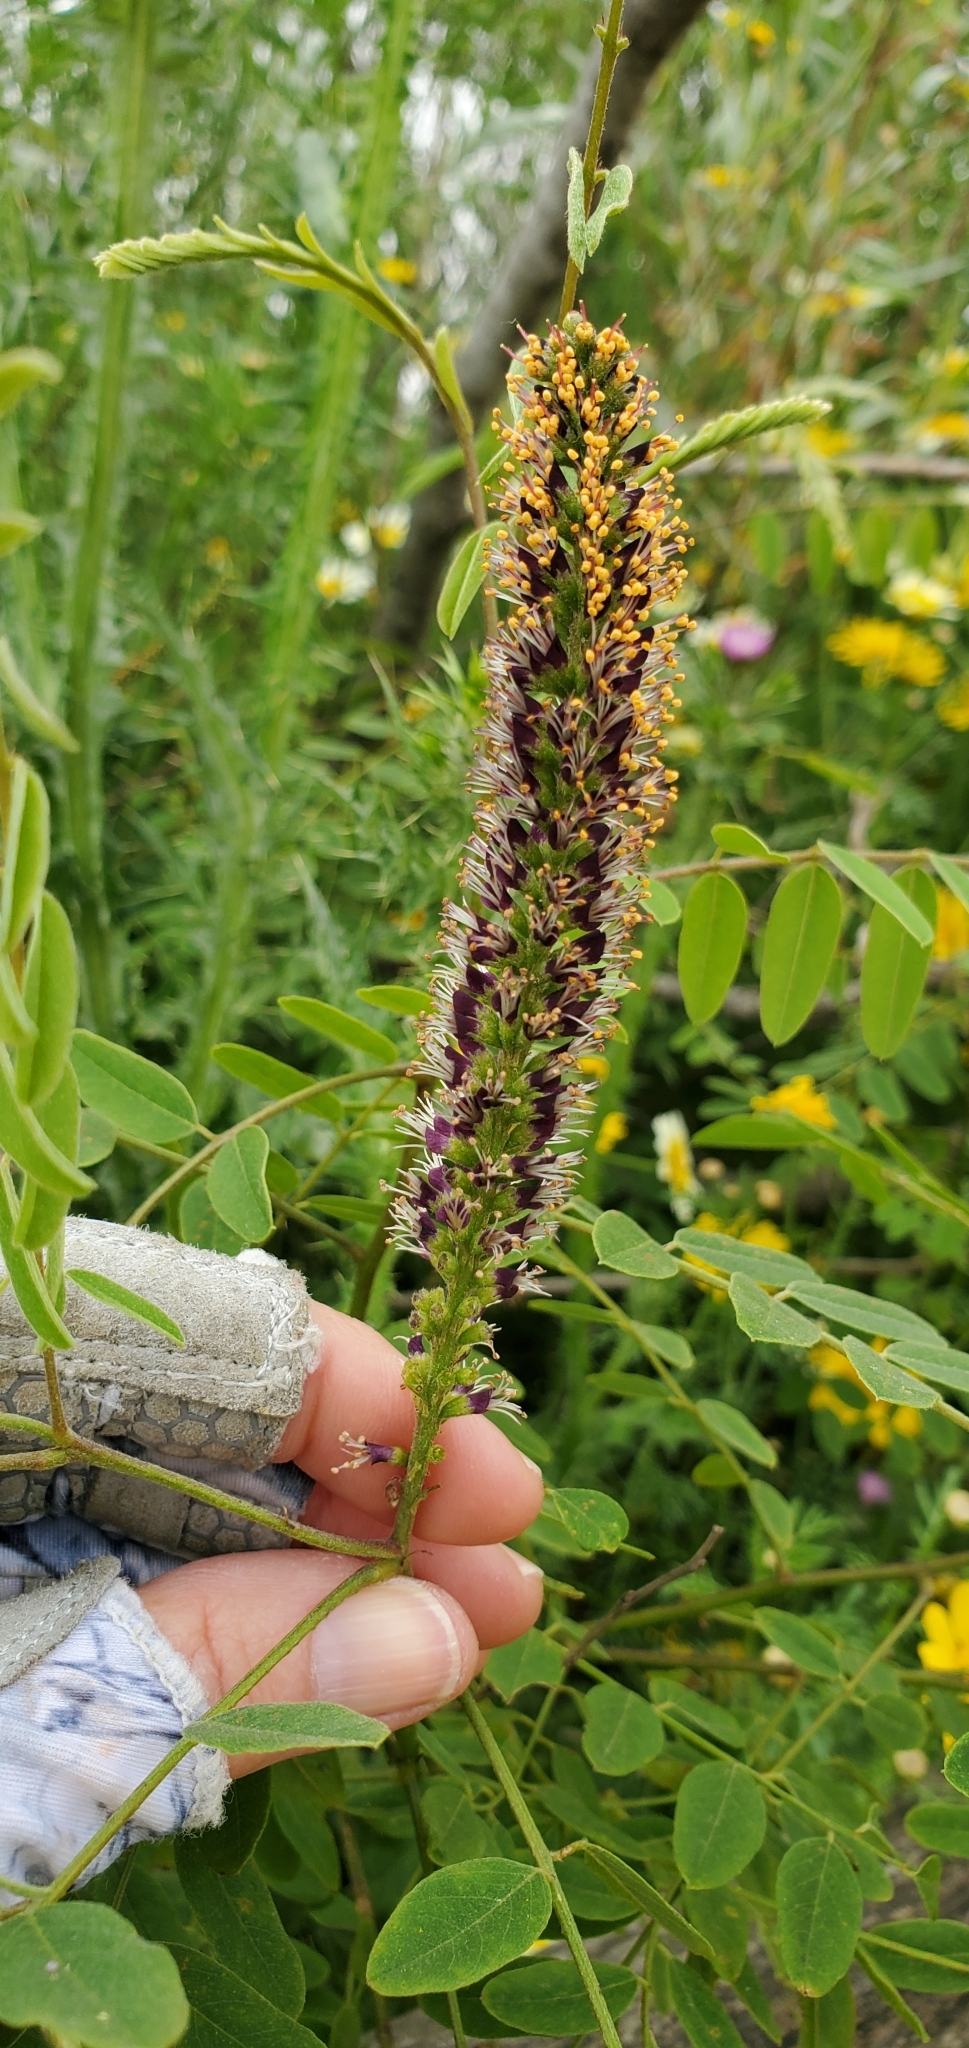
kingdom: Plantae
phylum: Tracheophyta
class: Magnoliopsida
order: Fabales
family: Fabaceae
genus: Amorpha
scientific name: Amorpha fruticosa
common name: False indigo
